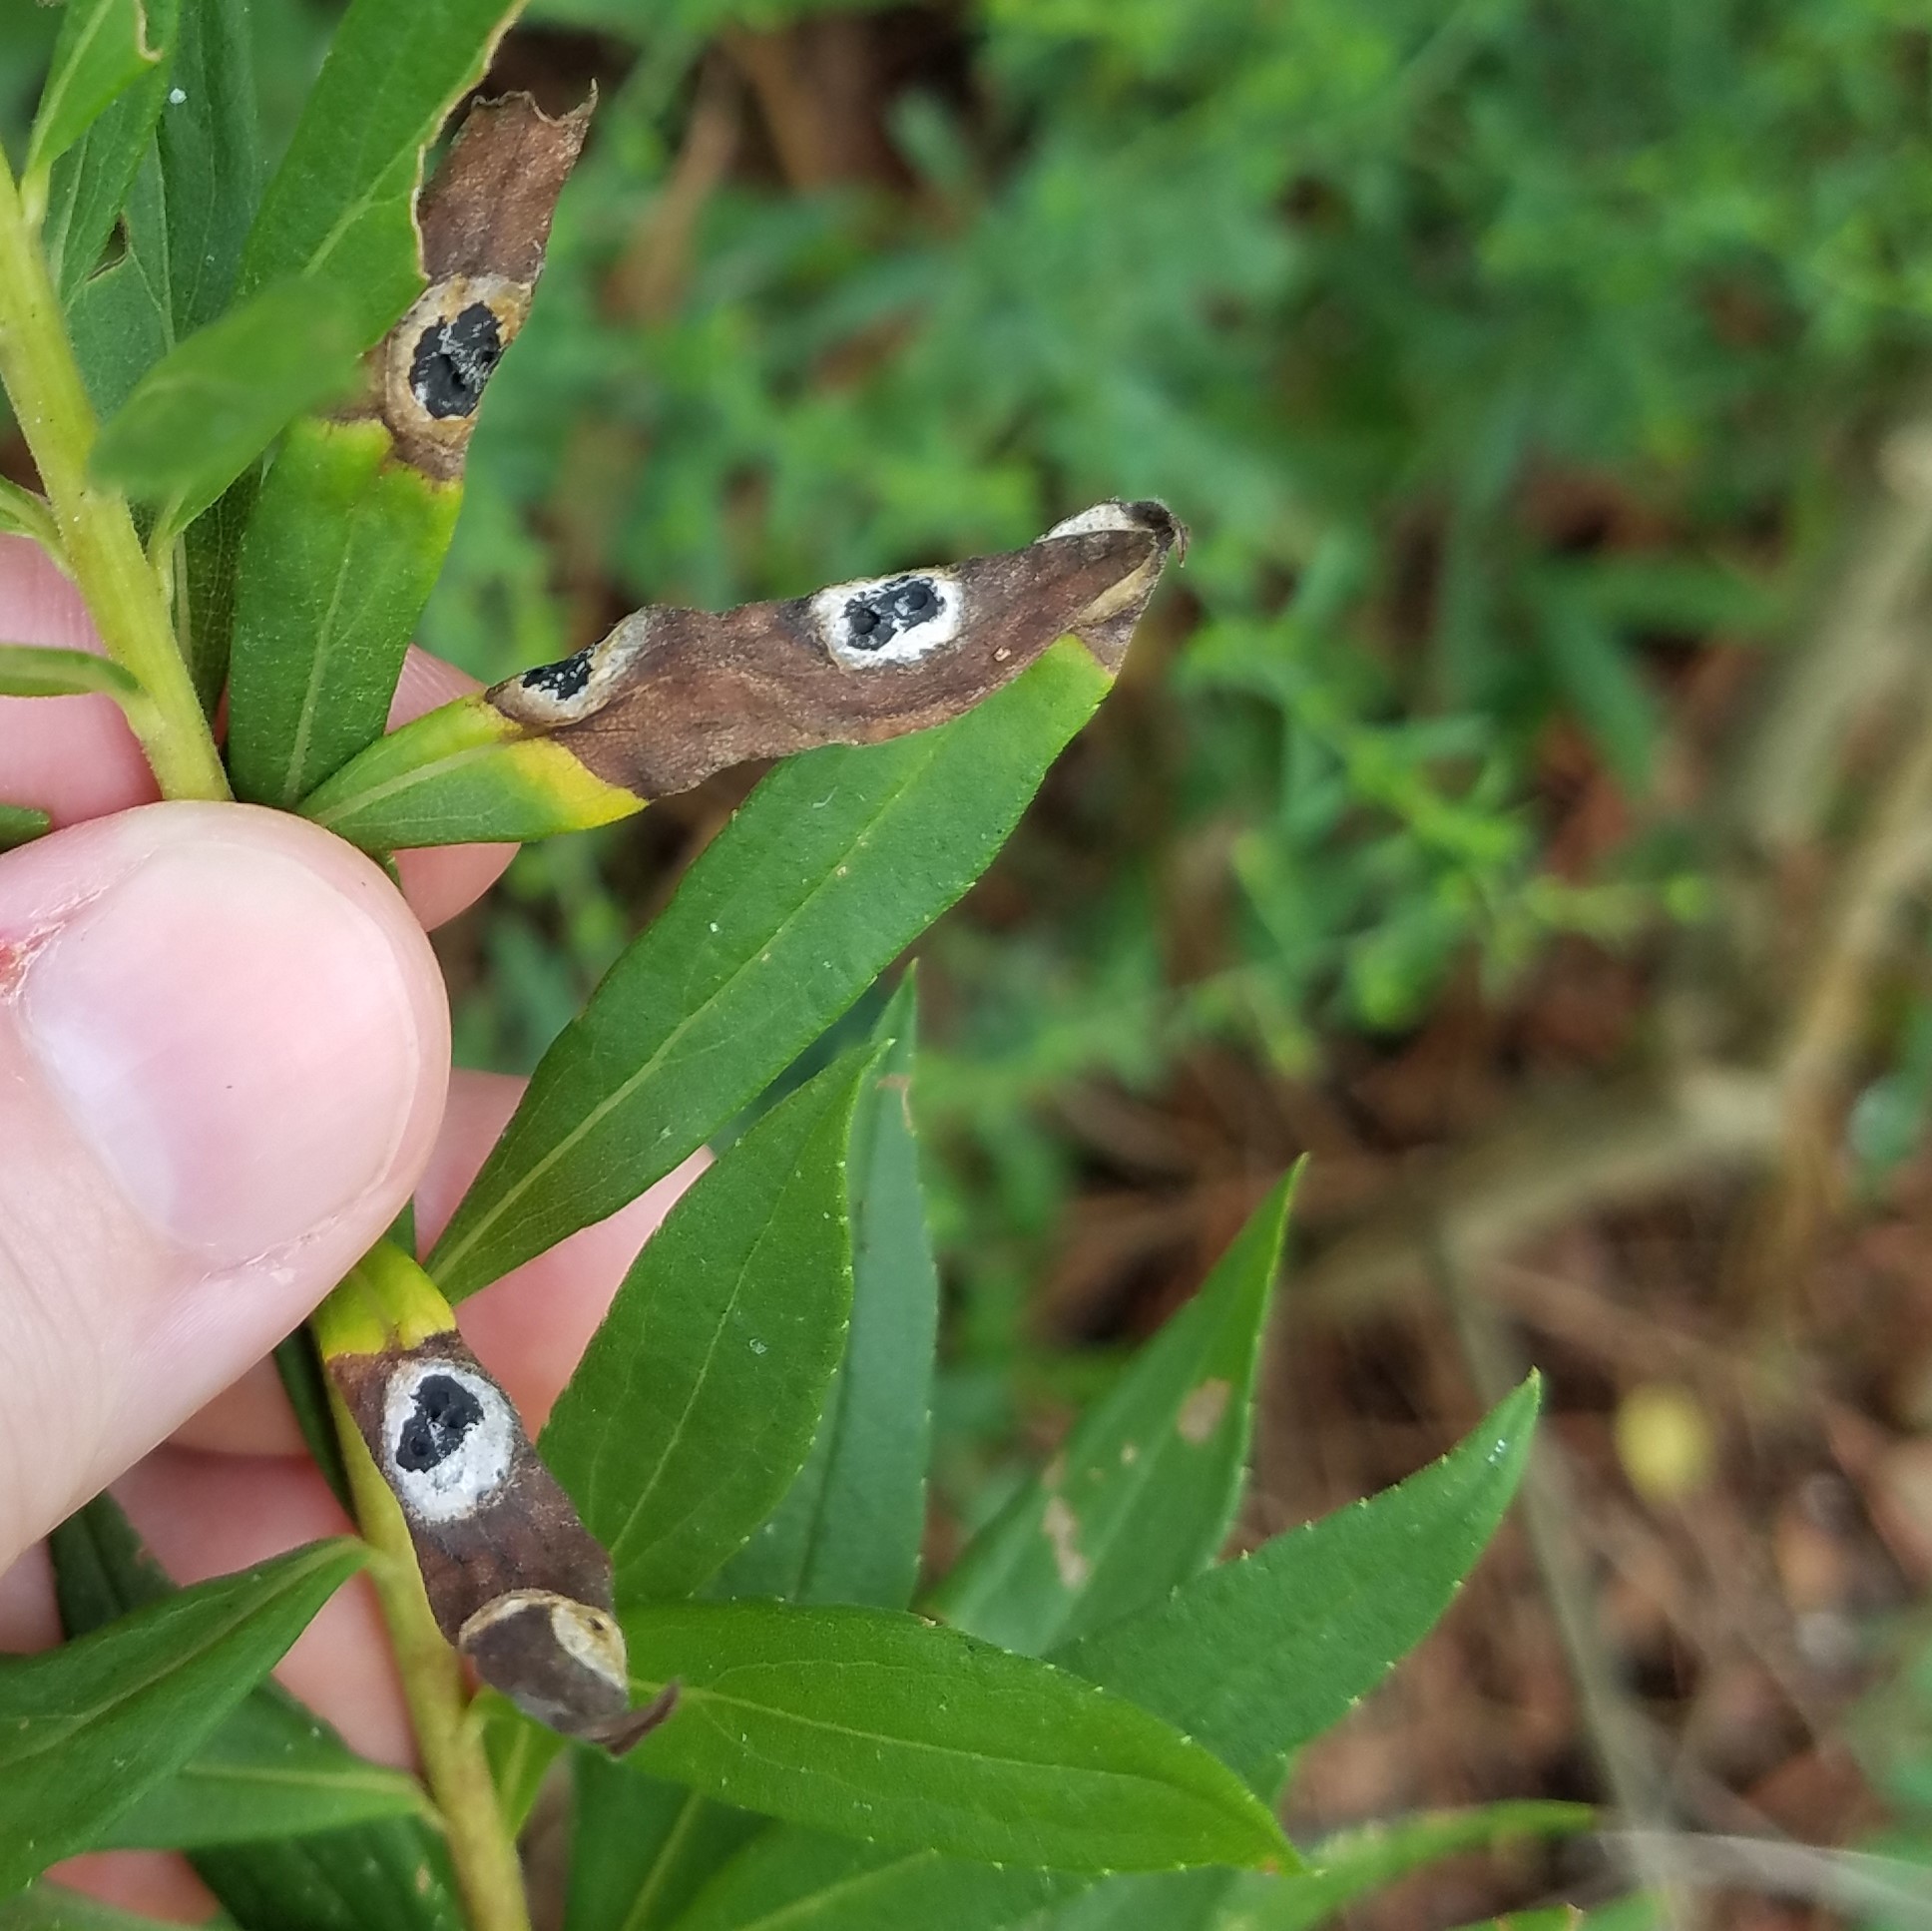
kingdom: Animalia
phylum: Arthropoda
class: Insecta
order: Diptera
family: Cecidomyiidae
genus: Asteromyia
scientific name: Asteromyia carbonifera
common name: Carbonifera goldenrod gall midge
